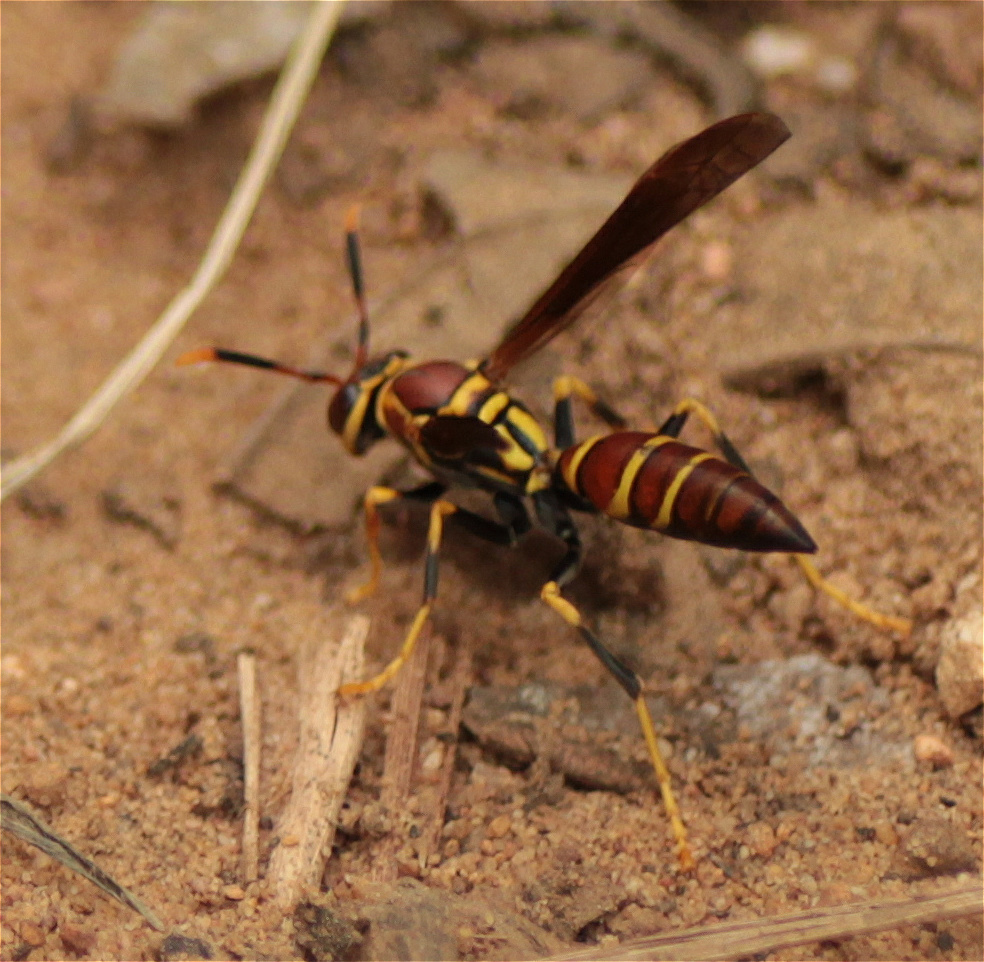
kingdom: Animalia
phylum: Arthropoda
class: Insecta
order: Hymenoptera
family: Eumenidae
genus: Polistes
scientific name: Polistes instabilis
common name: Unstable paper wasp
